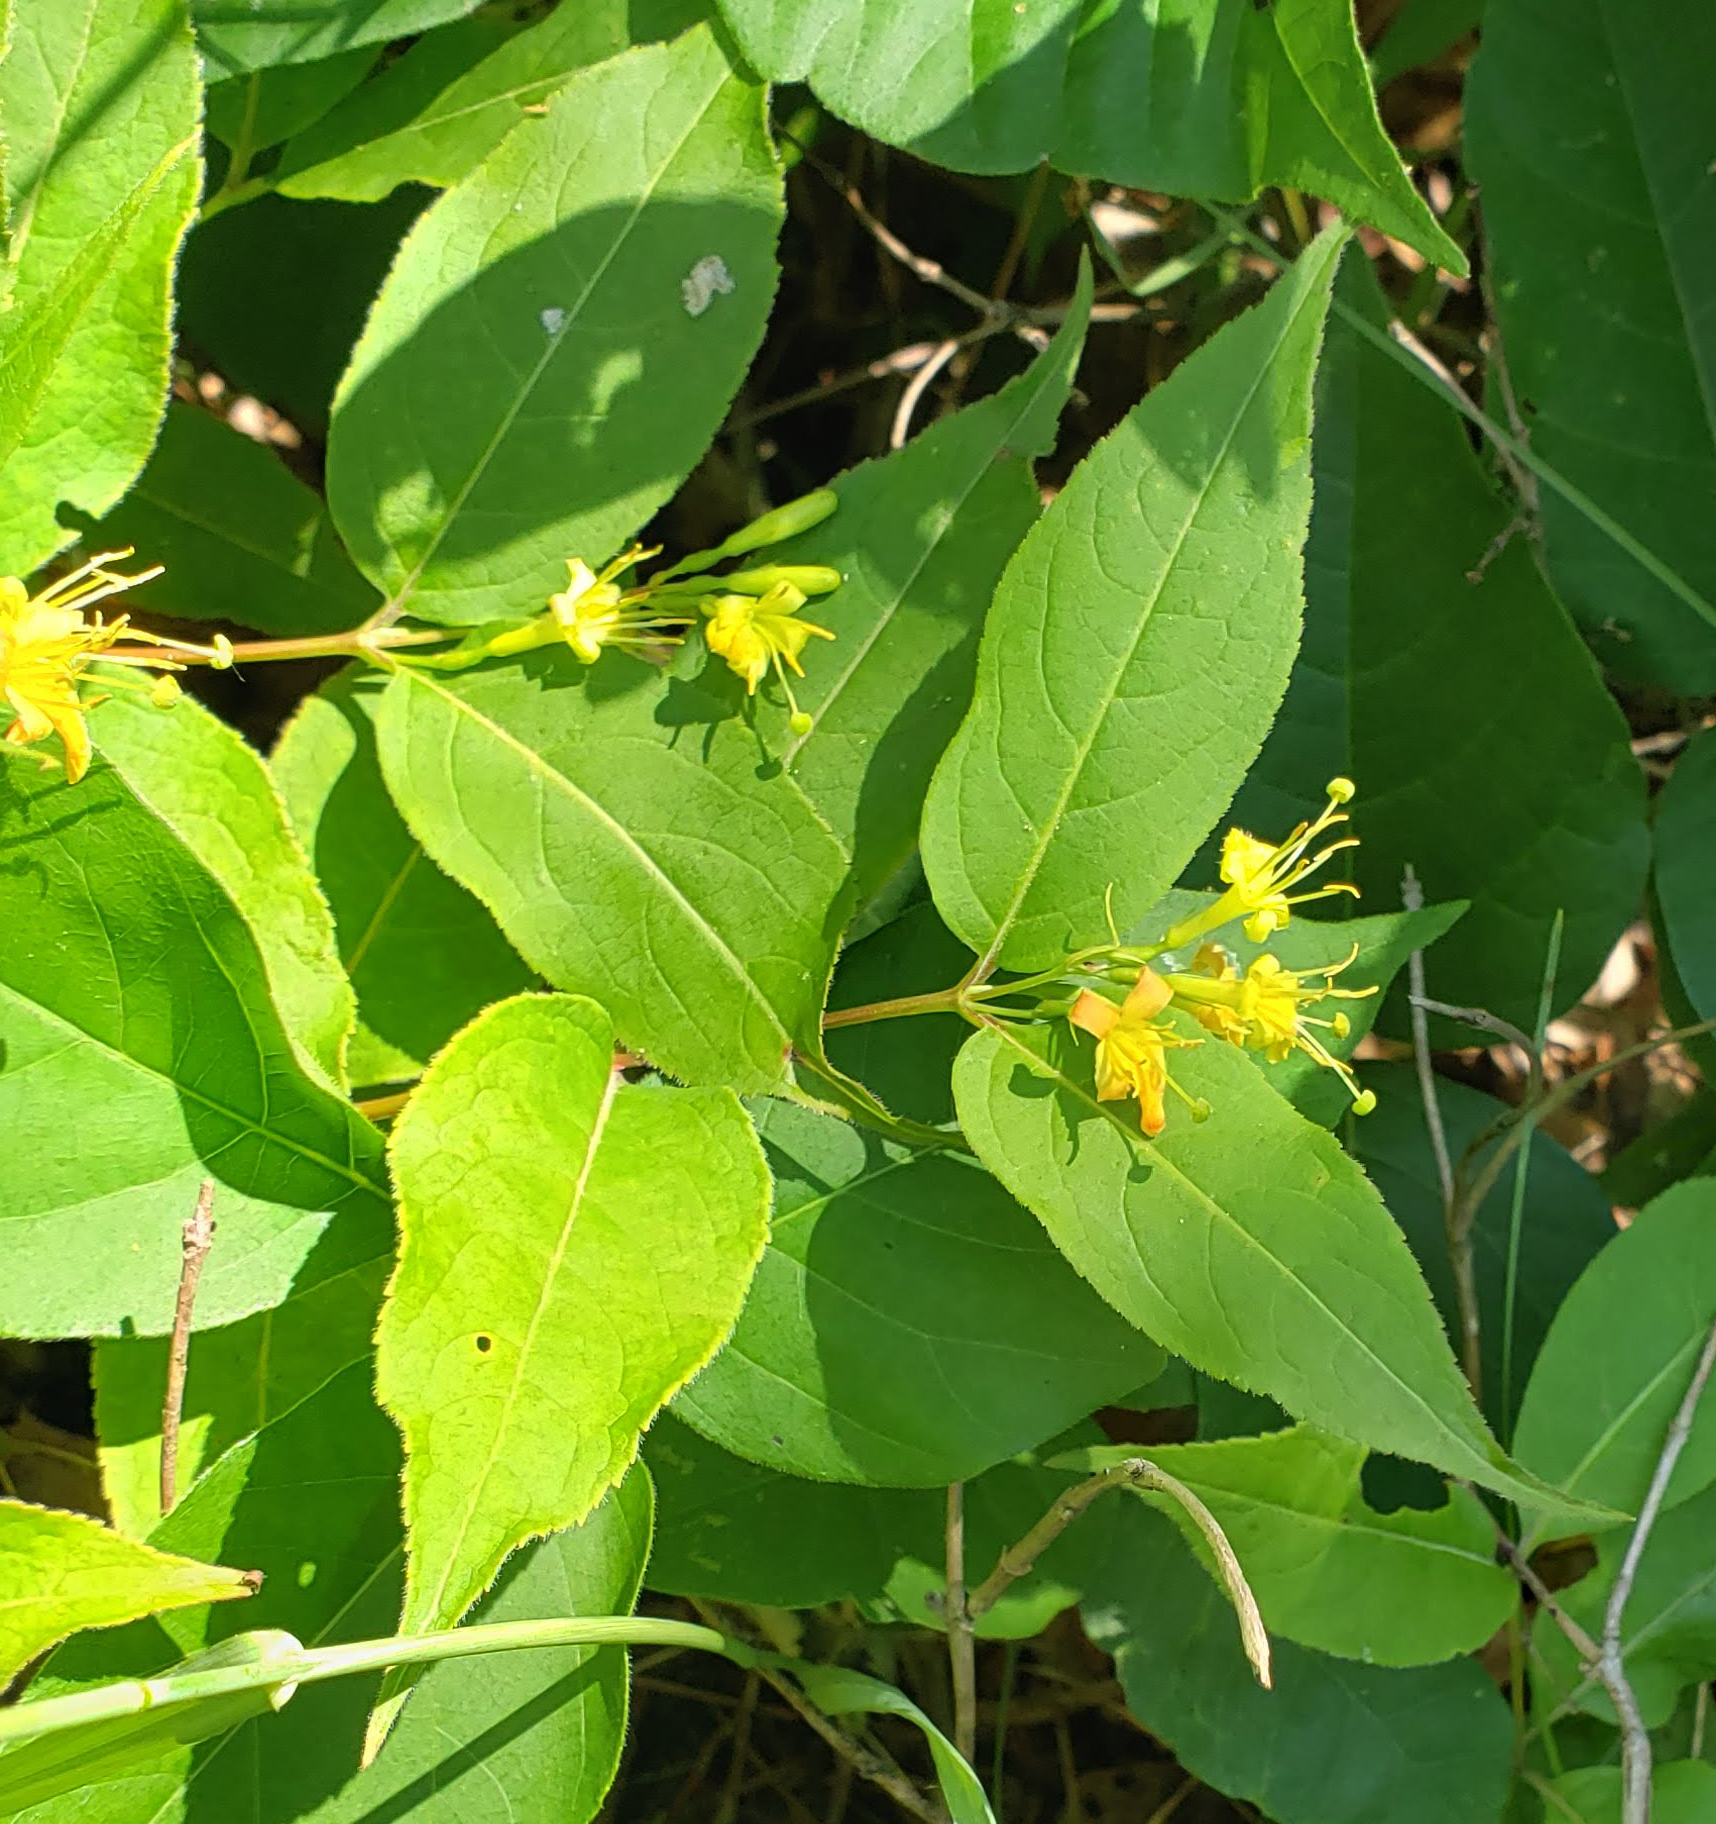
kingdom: Plantae
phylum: Tracheophyta
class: Magnoliopsida
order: Dipsacales
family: Caprifoliaceae
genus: Diervilla
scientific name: Diervilla lonicera
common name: Bush-honeysuckle
